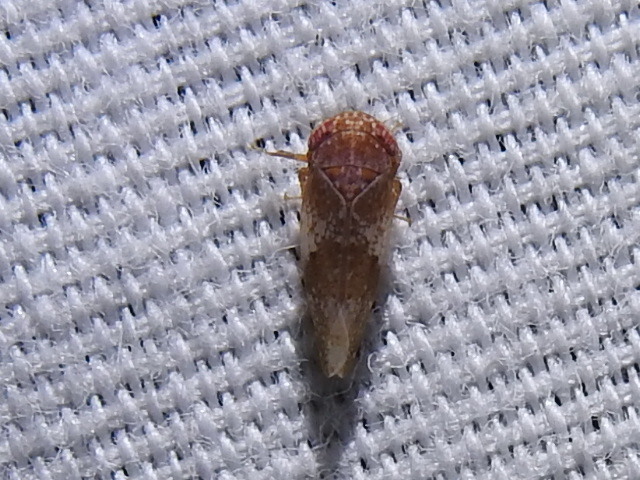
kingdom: Animalia
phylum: Arthropoda
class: Insecta
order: Hemiptera
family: Cicadellidae
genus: Norvellina
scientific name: Norvellina helenae
